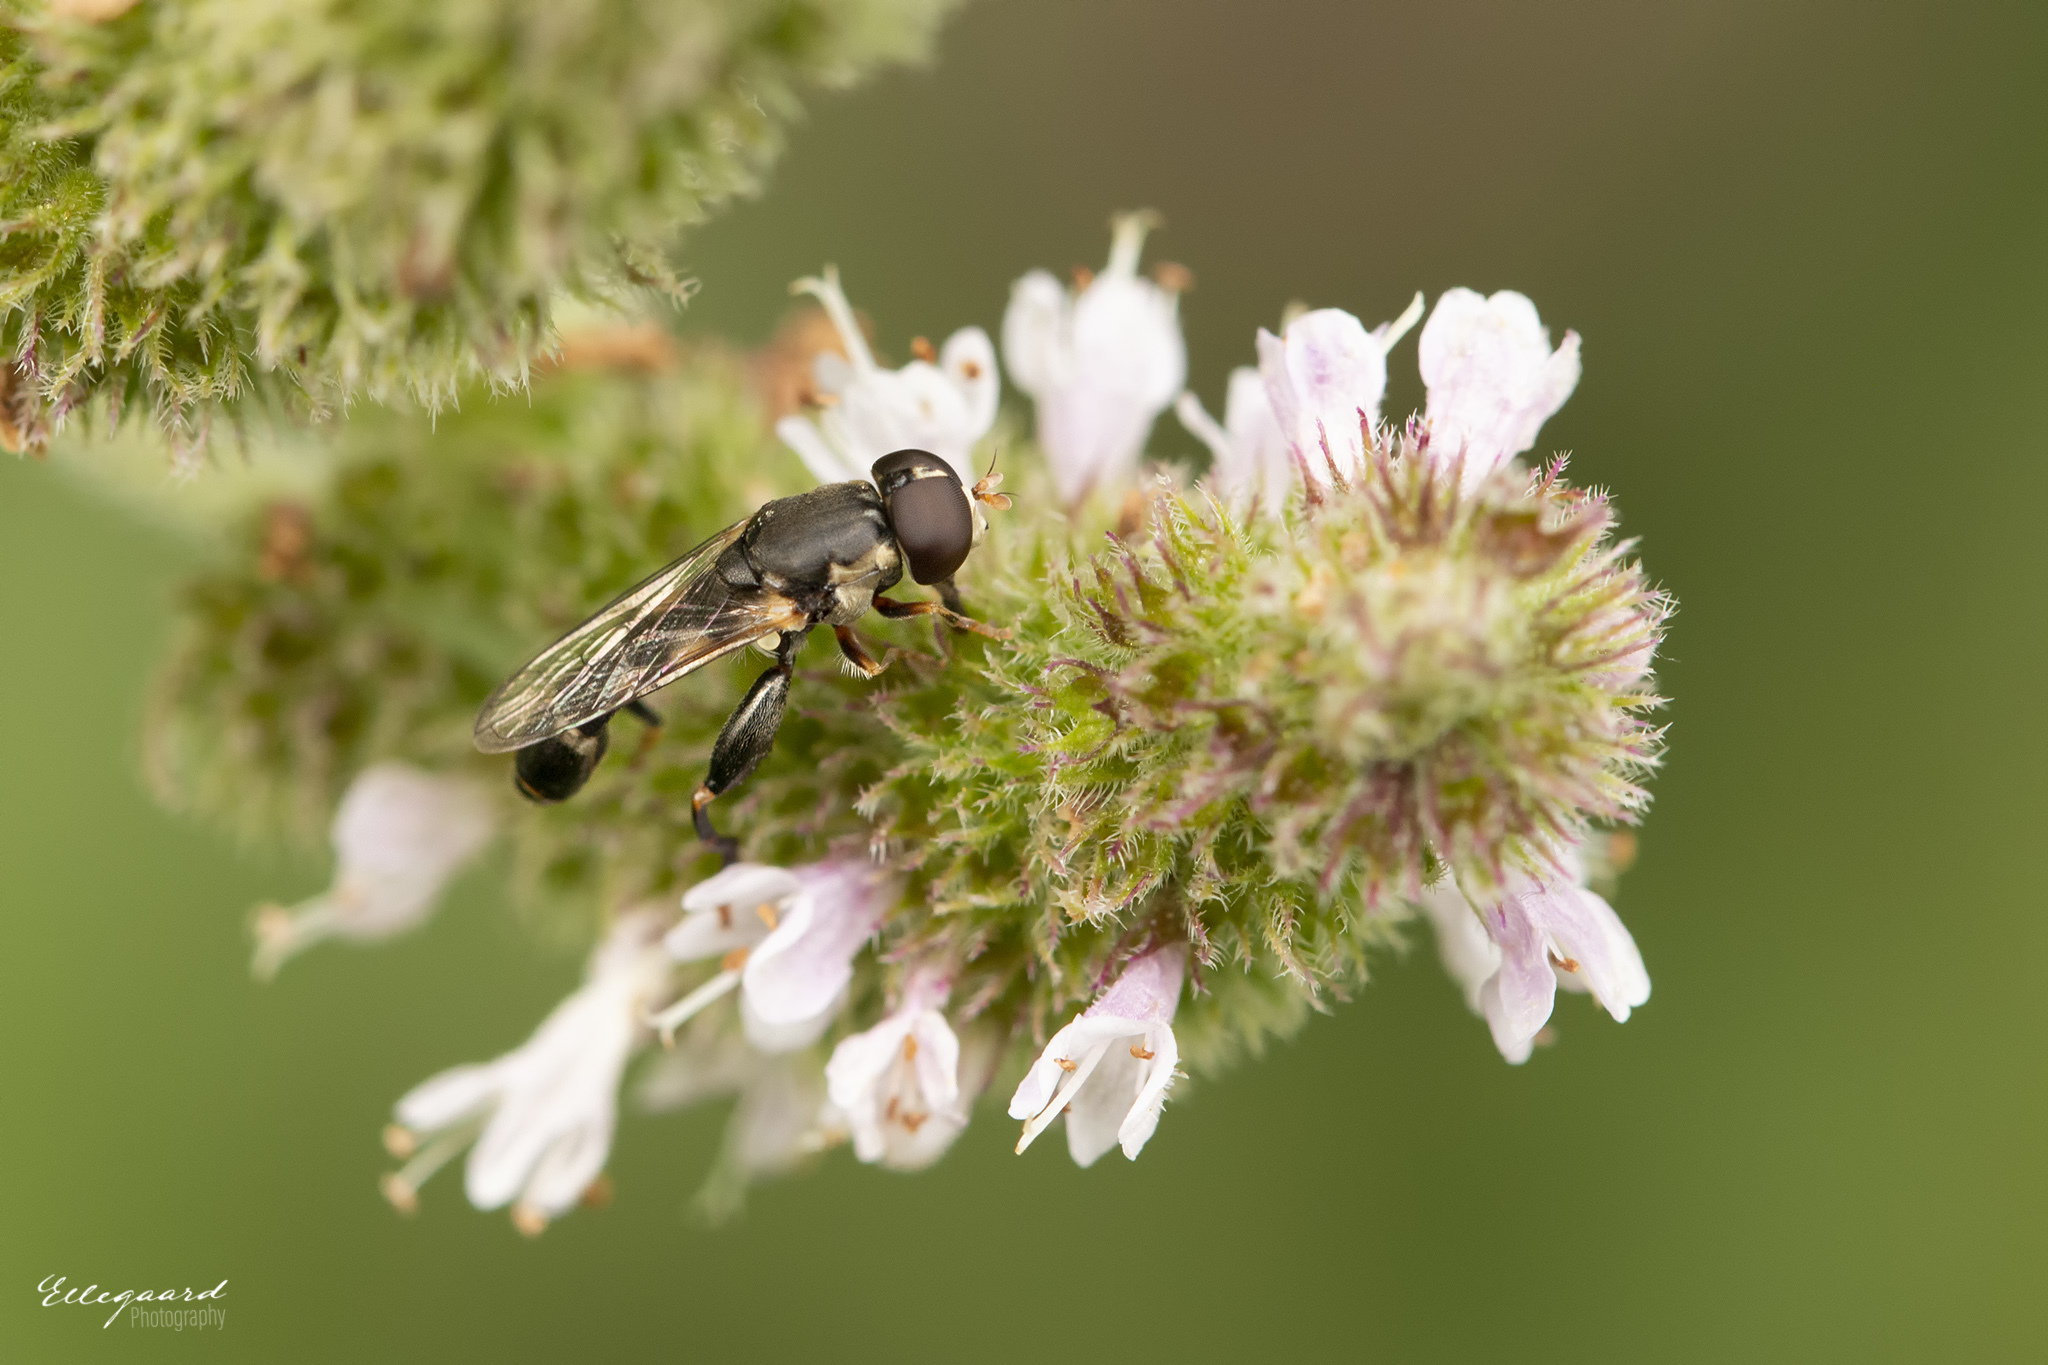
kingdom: Animalia
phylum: Arthropoda
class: Insecta
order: Diptera
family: Syrphidae
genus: Syritta
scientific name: Syritta pipiens
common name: Hover fly
